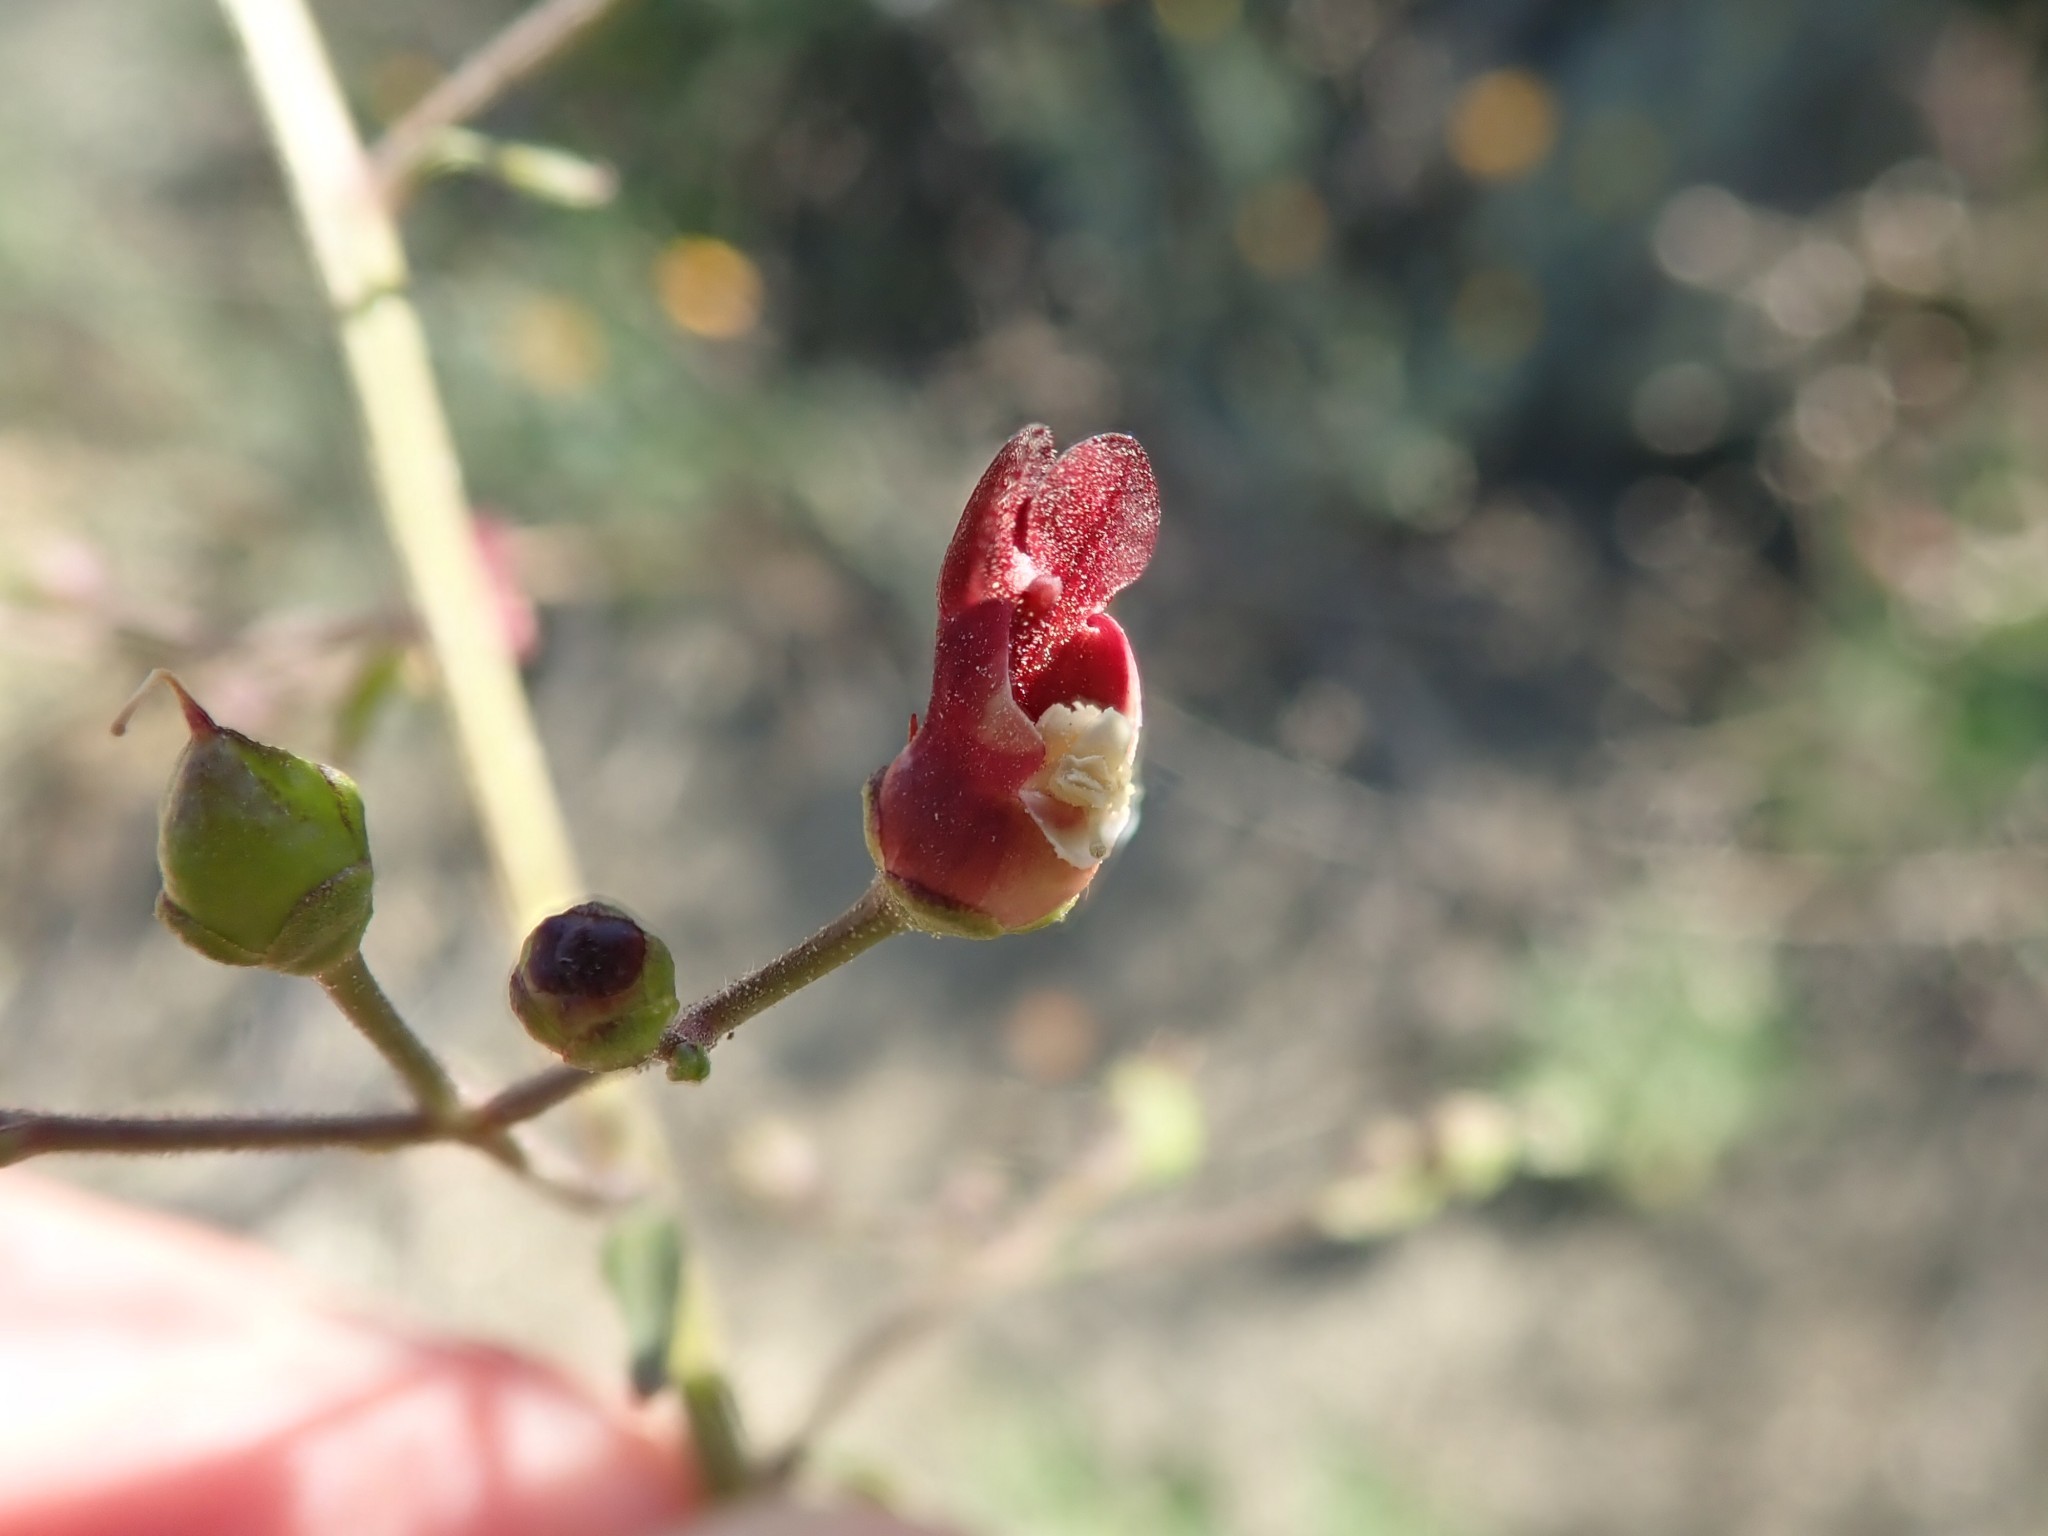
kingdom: Plantae
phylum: Tracheophyta
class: Magnoliopsida
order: Lamiales
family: Scrophulariaceae
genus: Scrophularia
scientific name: Scrophularia californica
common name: California figwort
